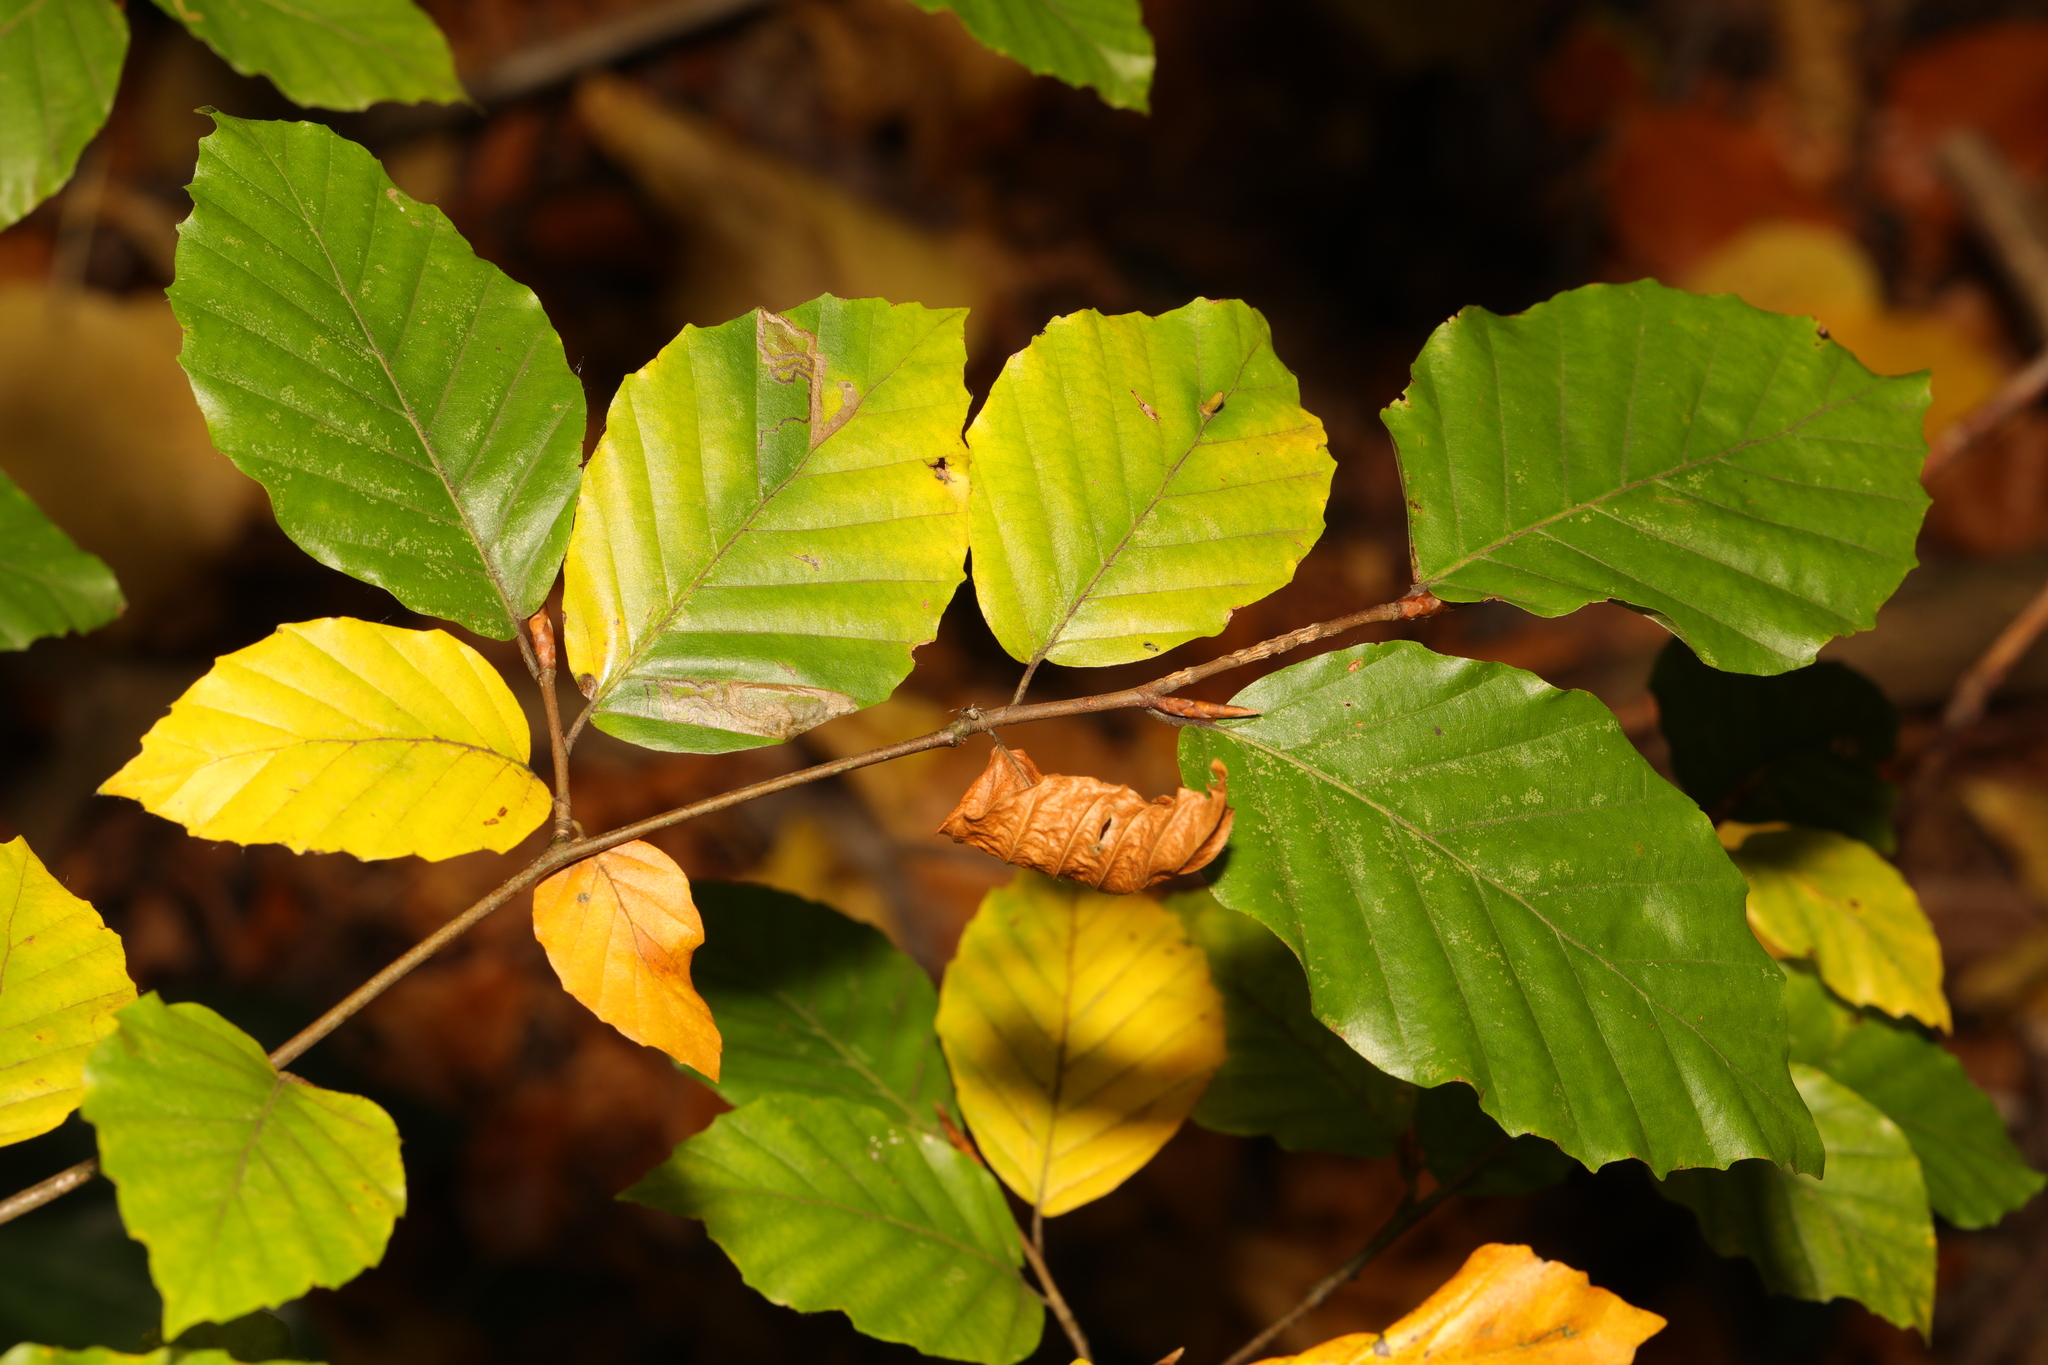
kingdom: Plantae
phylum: Tracheophyta
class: Magnoliopsida
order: Fagales
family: Fagaceae
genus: Fagus
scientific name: Fagus sylvatica
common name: Beech
